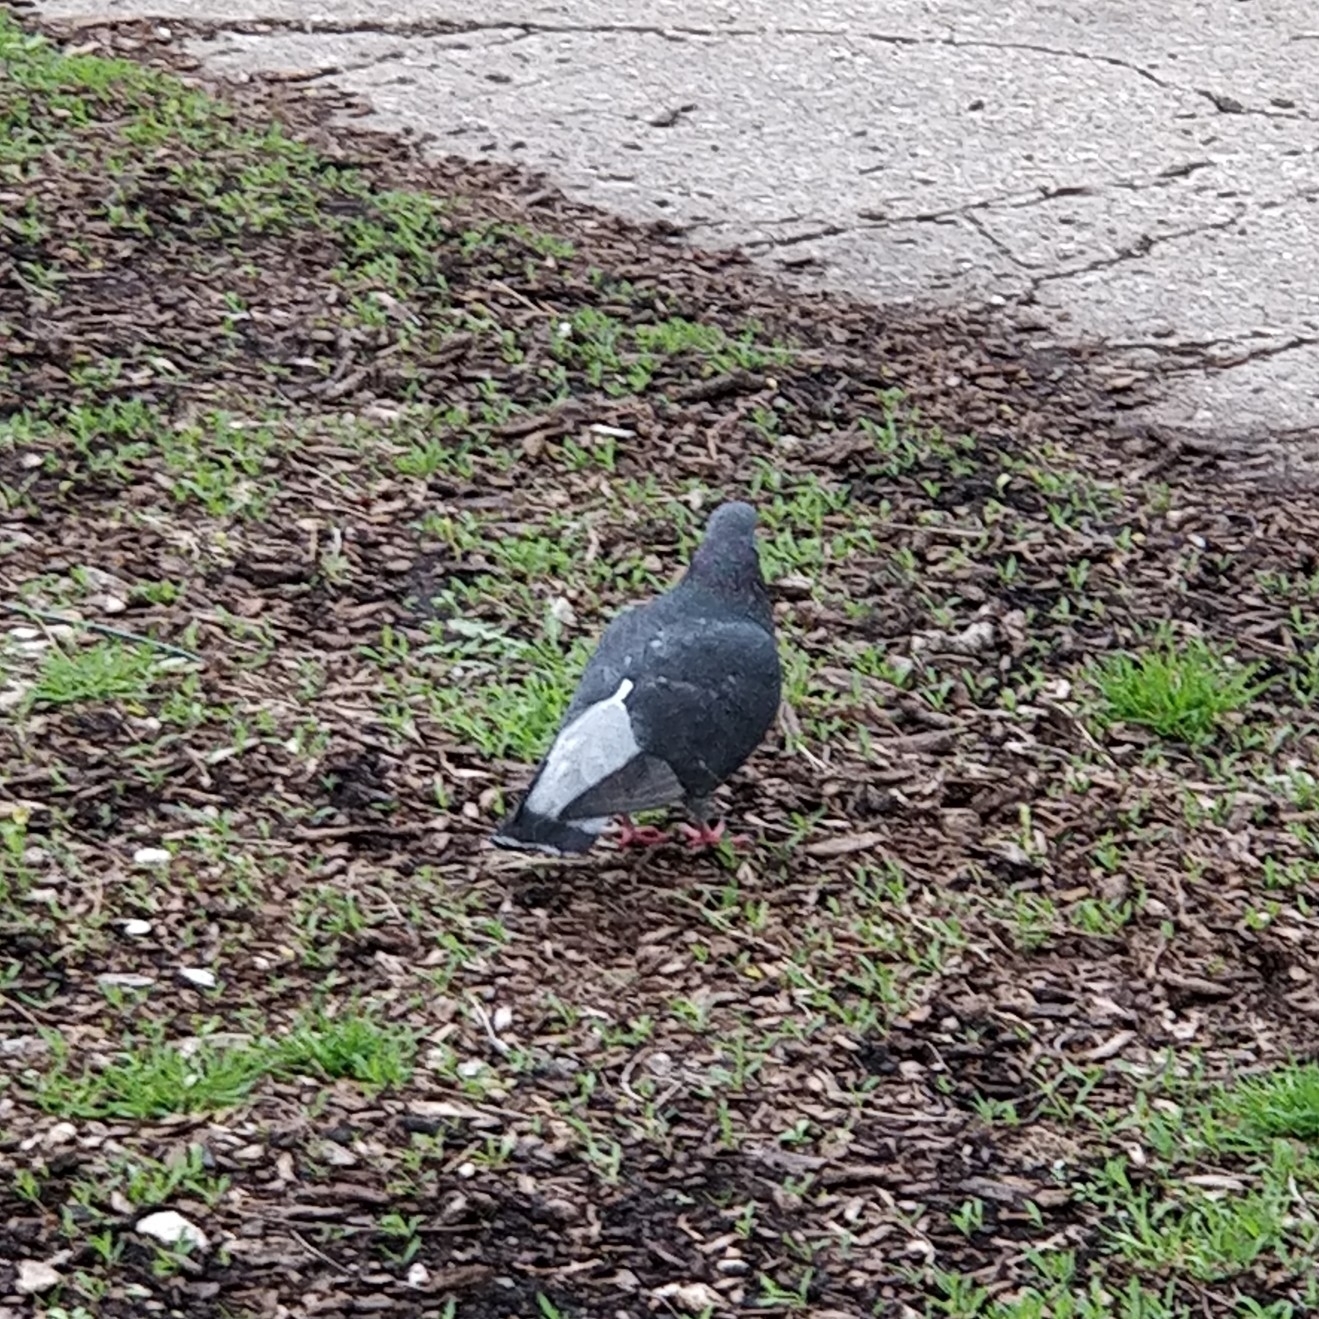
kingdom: Animalia
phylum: Chordata
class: Aves
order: Columbiformes
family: Columbidae
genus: Columba
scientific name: Columba livia
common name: Rock pigeon
